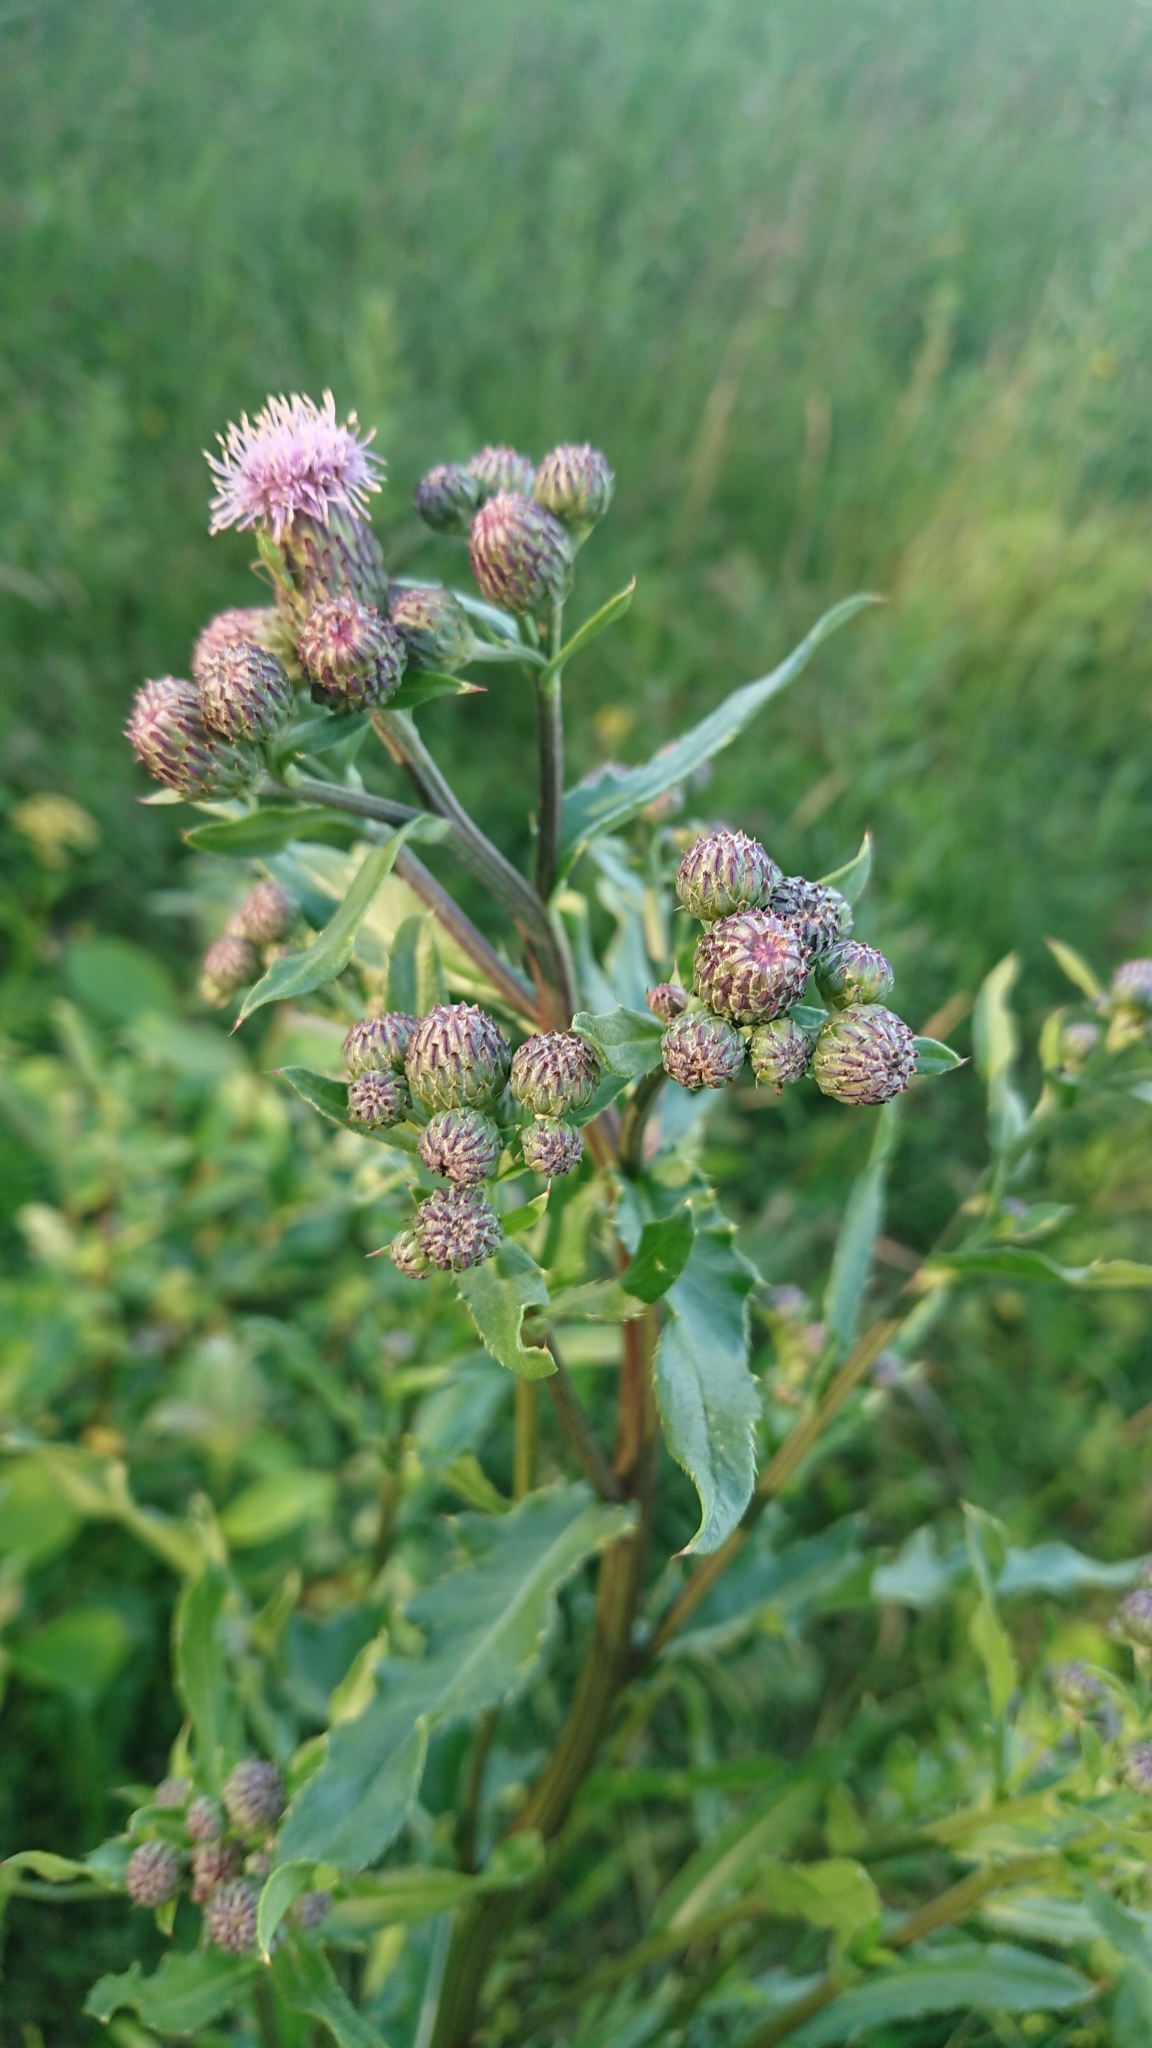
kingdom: Plantae
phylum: Tracheophyta
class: Magnoliopsida
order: Asterales
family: Asteraceae
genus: Cirsium
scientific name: Cirsium arvense
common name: Creeping thistle
